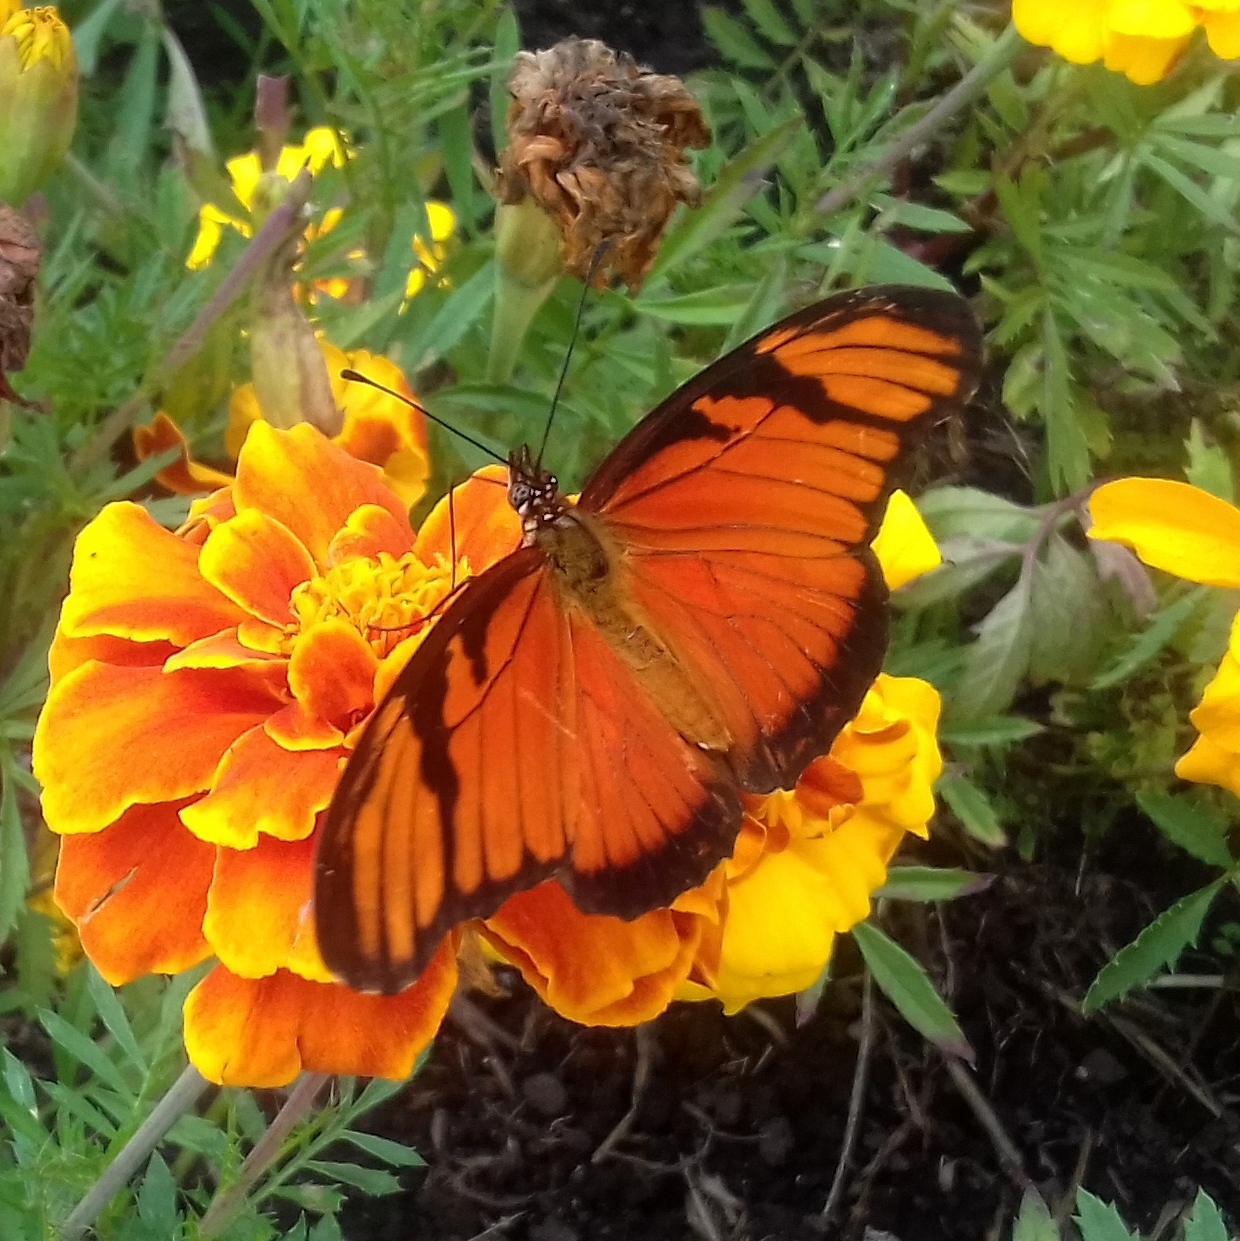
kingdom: Animalia
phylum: Arthropoda
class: Insecta
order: Lepidoptera
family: Nymphalidae
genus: Dione
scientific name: Dione juno
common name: Juno silverspot
